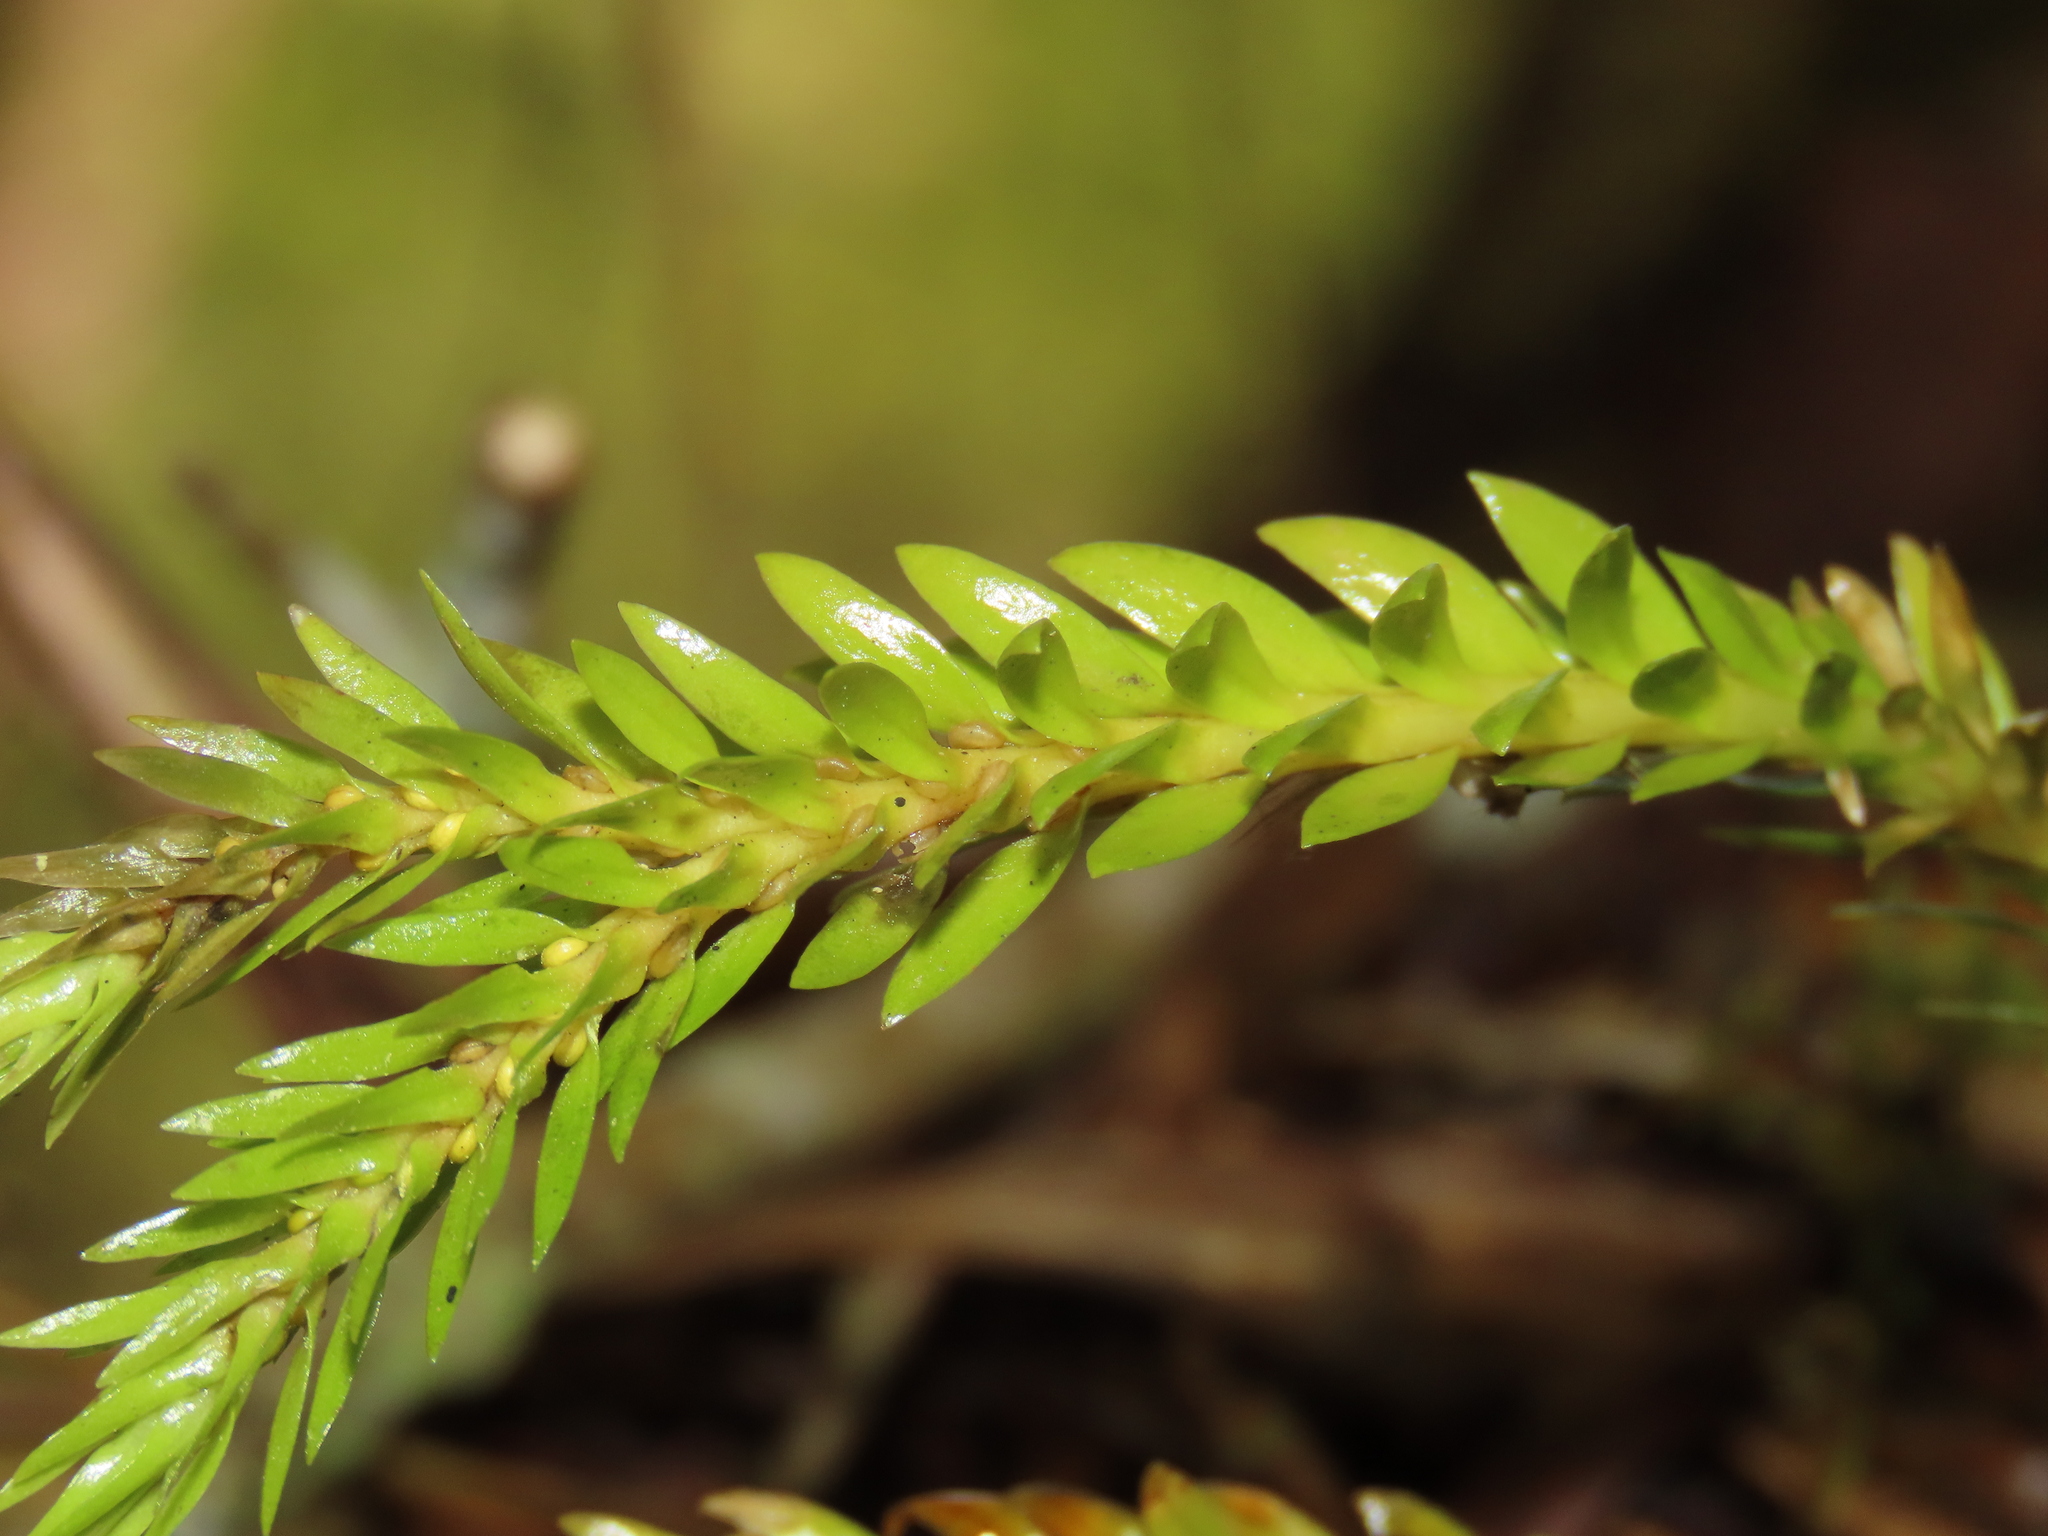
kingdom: Plantae
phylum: Tracheophyta
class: Lycopodiopsida
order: Lycopodiales
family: Lycopodiaceae
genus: Phlegmariurus
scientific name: Phlegmariurus fordii
